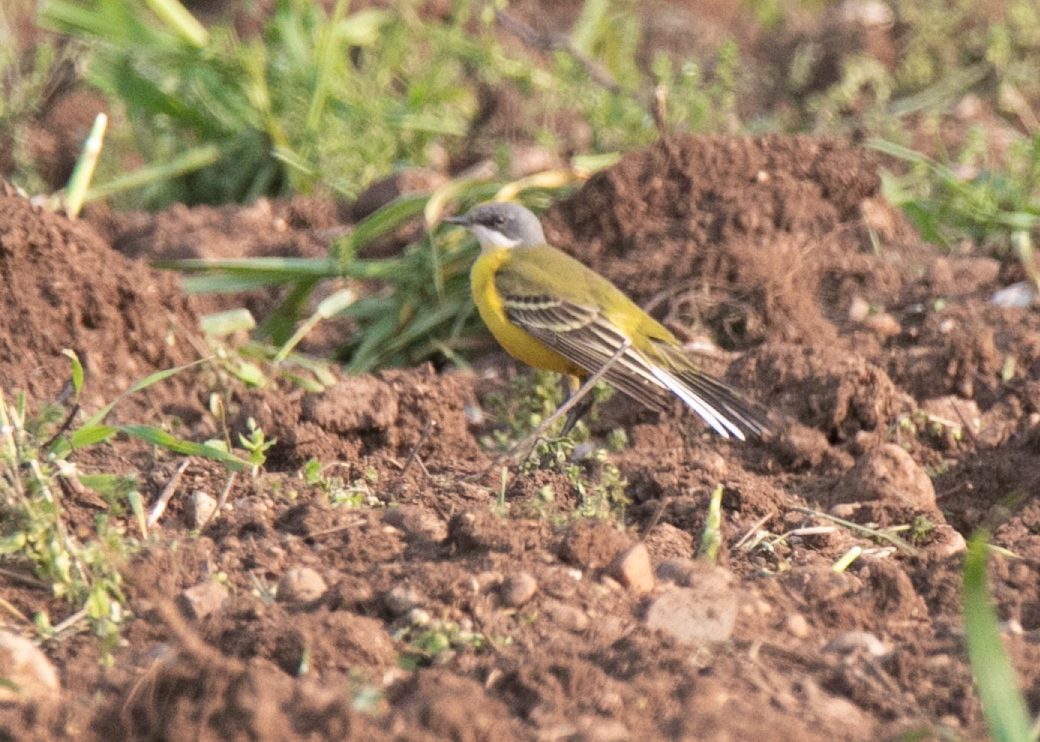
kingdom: Animalia
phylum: Chordata
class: Aves
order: Passeriformes
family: Motacillidae
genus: Motacilla
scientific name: Motacilla flava
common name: Western yellow wagtail
